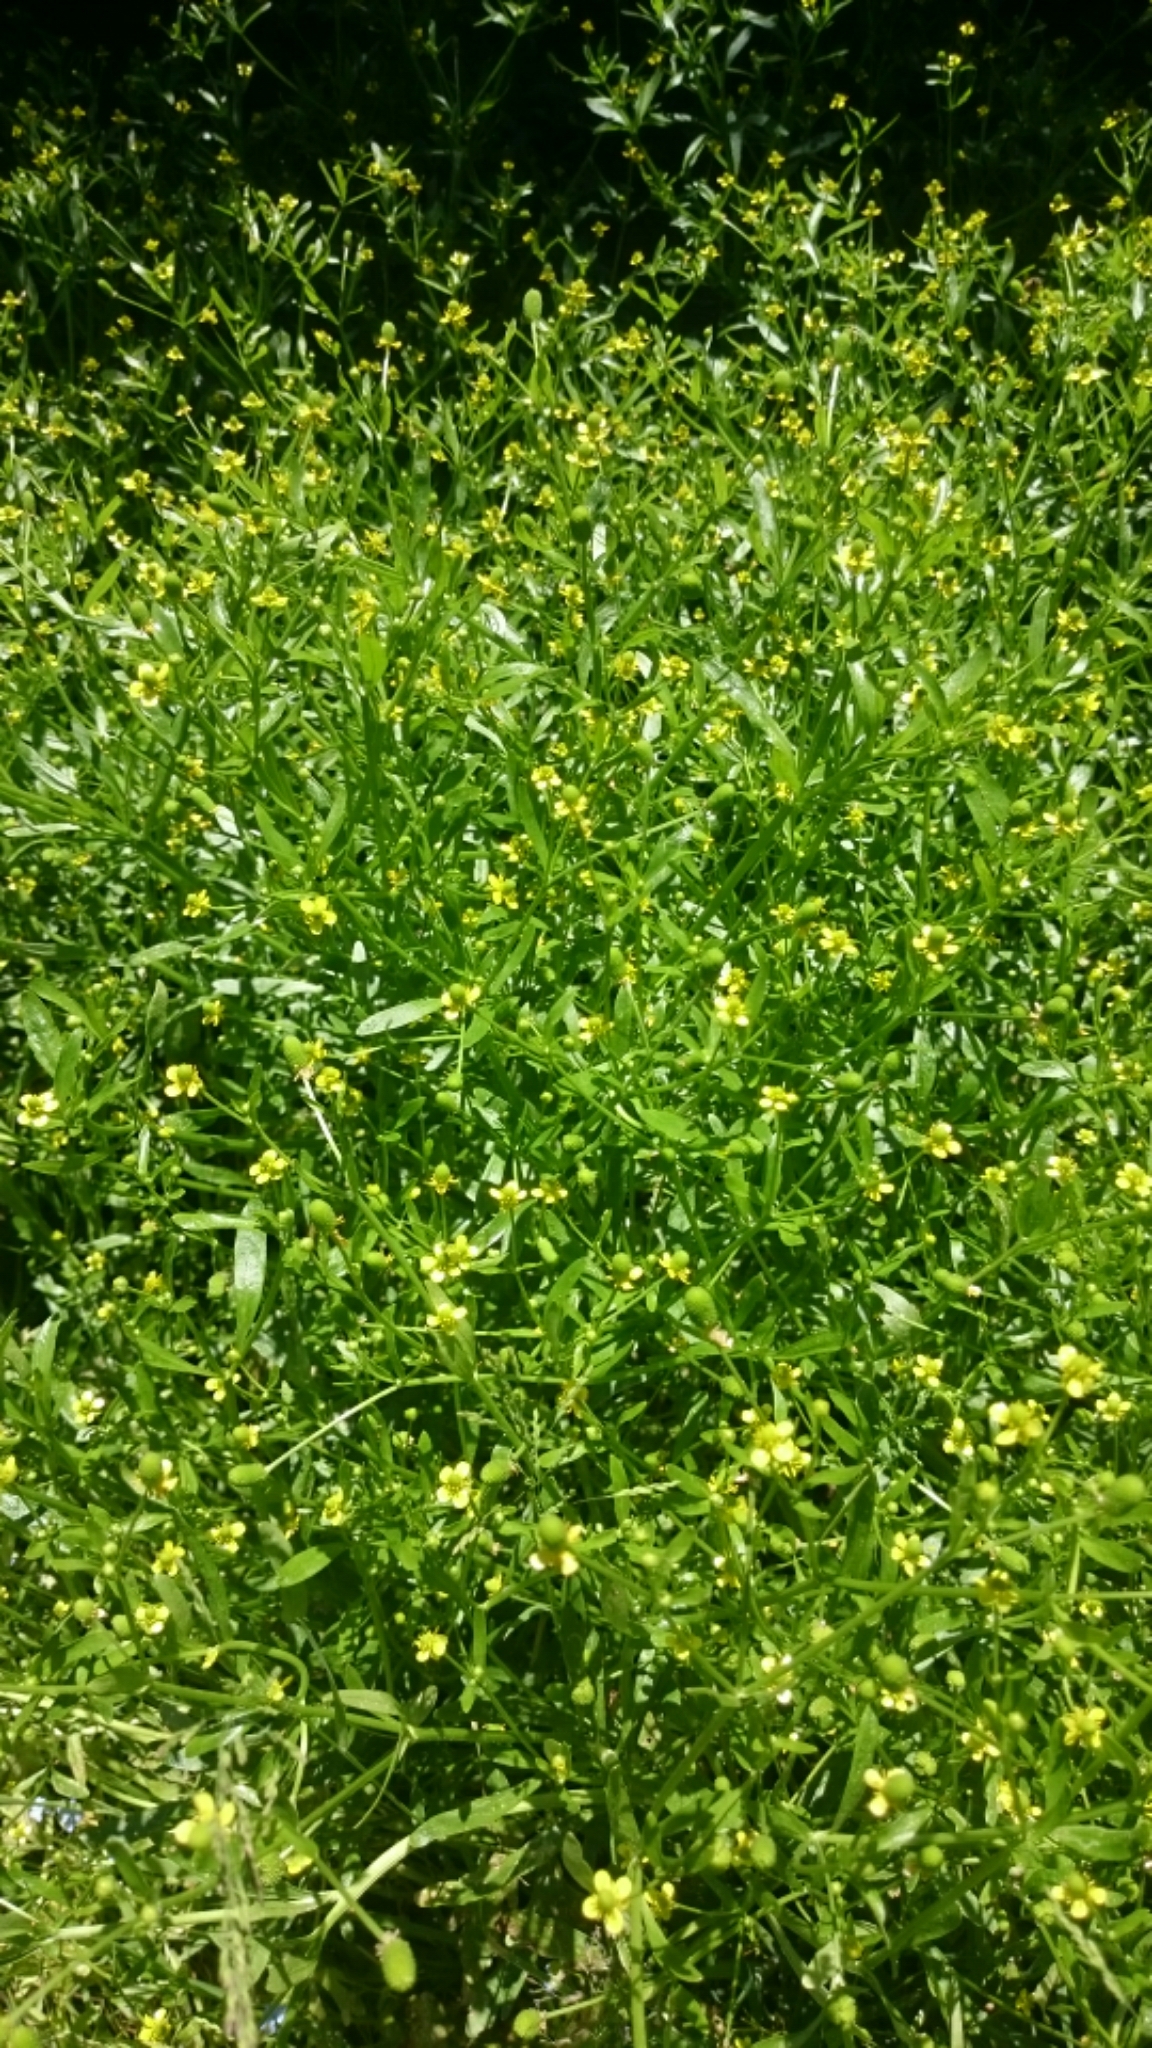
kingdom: Plantae
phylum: Tracheophyta
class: Magnoliopsida
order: Ranunculales
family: Ranunculaceae
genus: Ranunculus
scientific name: Ranunculus sceleratus
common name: Celery-leaved buttercup
